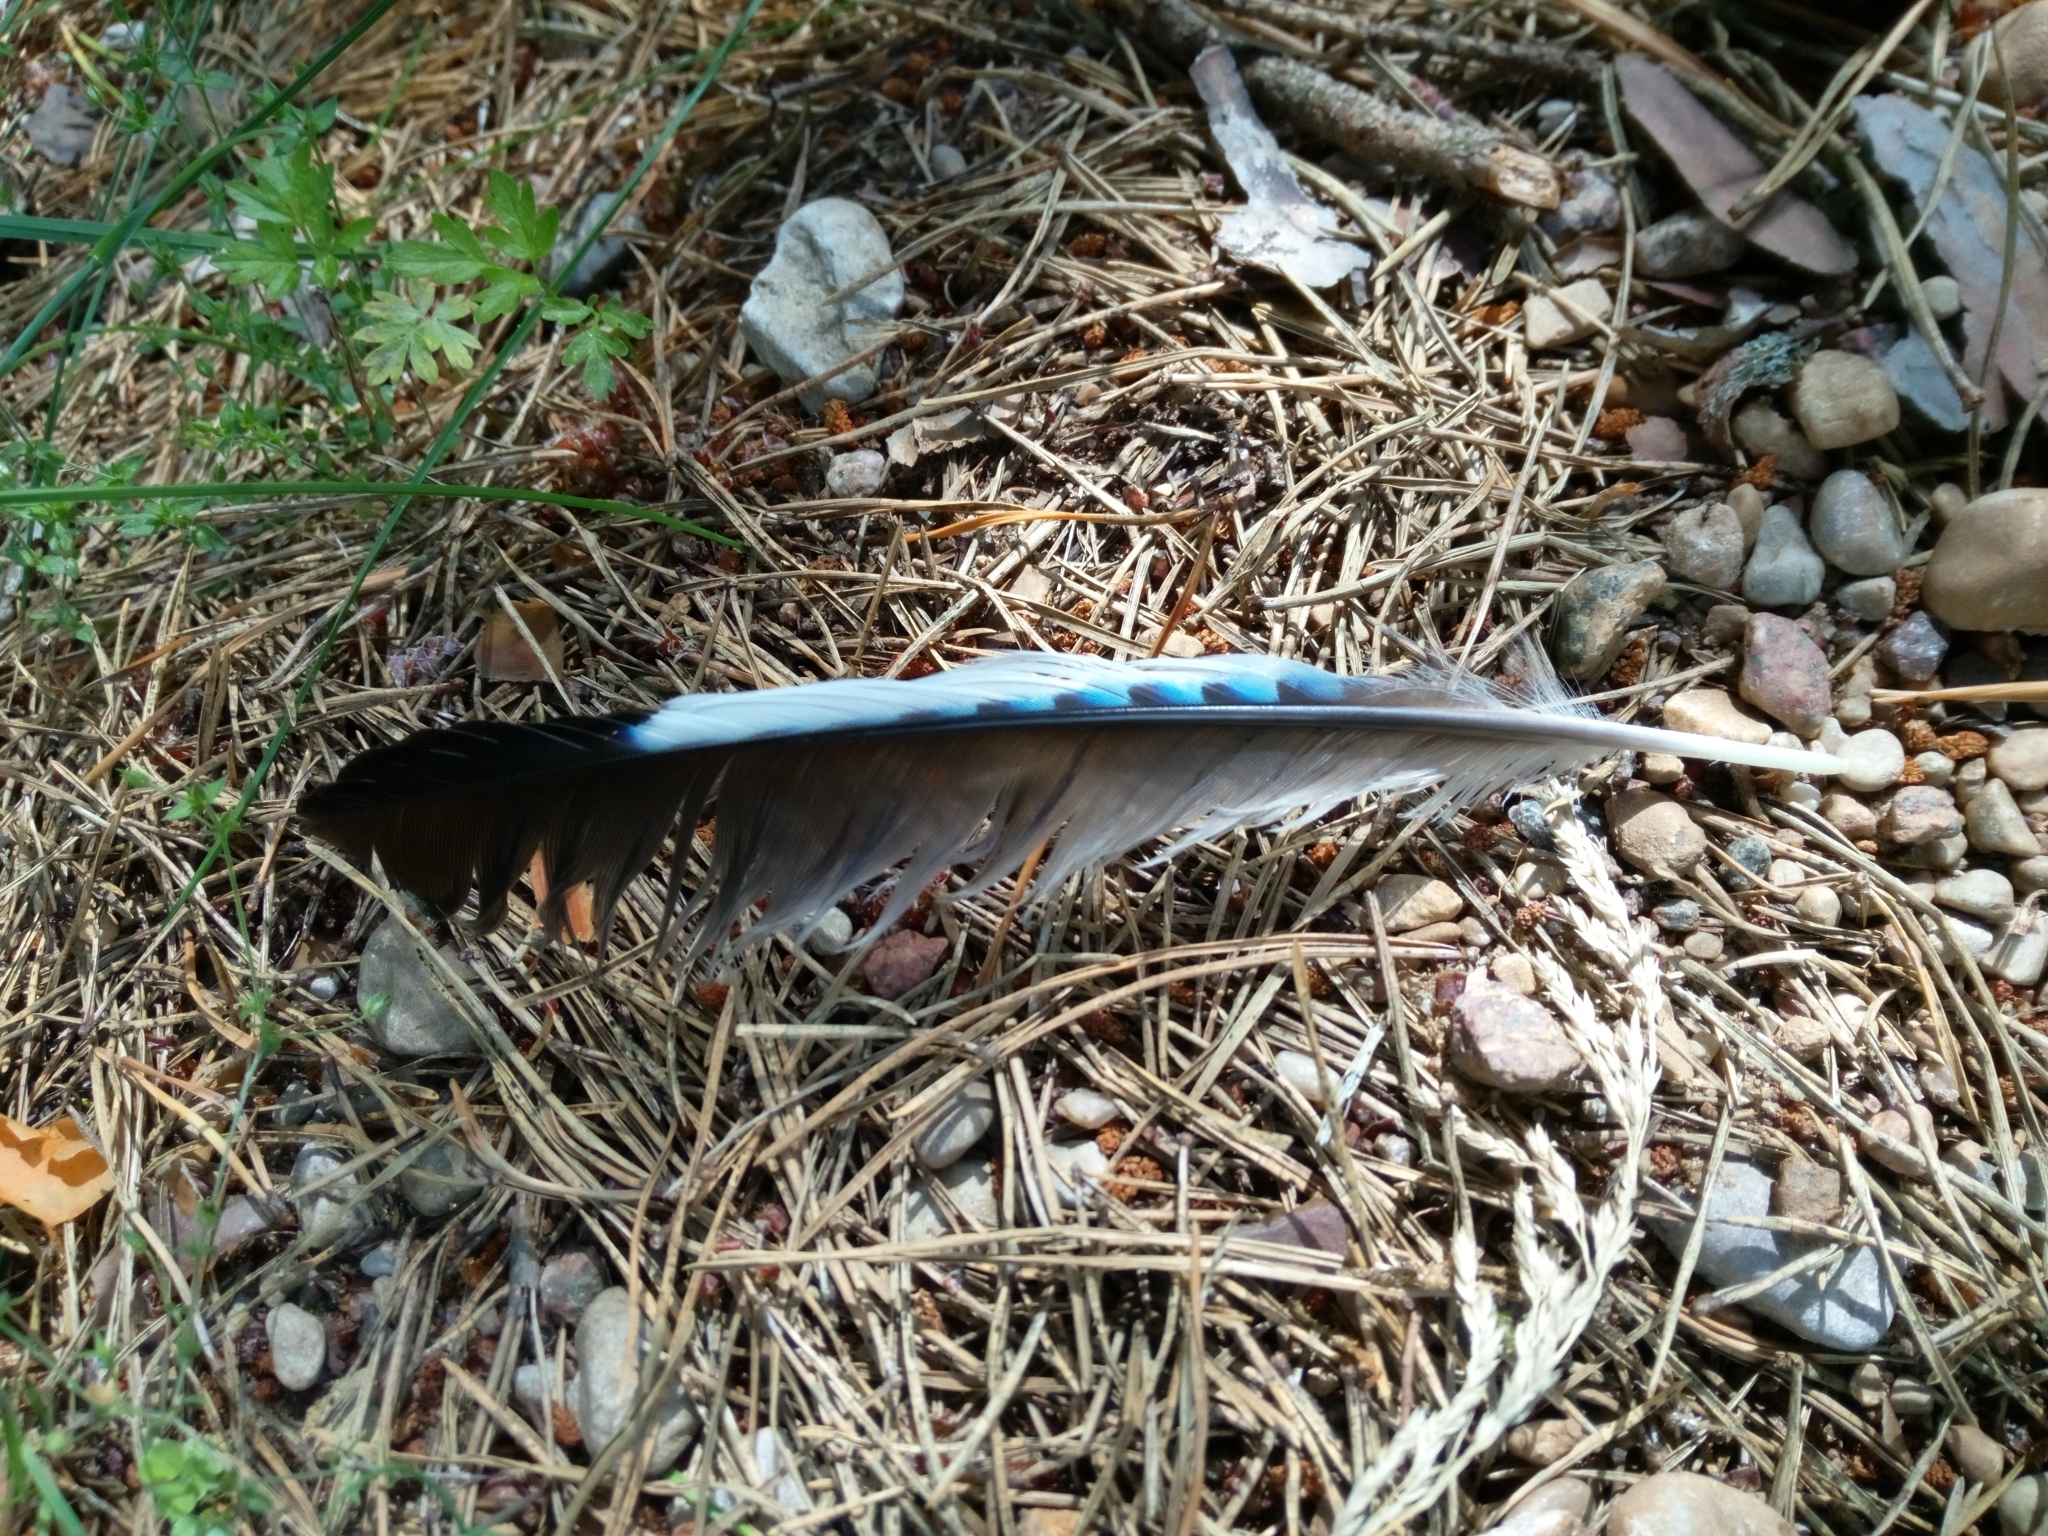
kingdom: Animalia
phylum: Chordata
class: Aves
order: Passeriformes
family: Corvidae
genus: Garrulus
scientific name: Garrulus glandarius
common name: Eurasian jay
